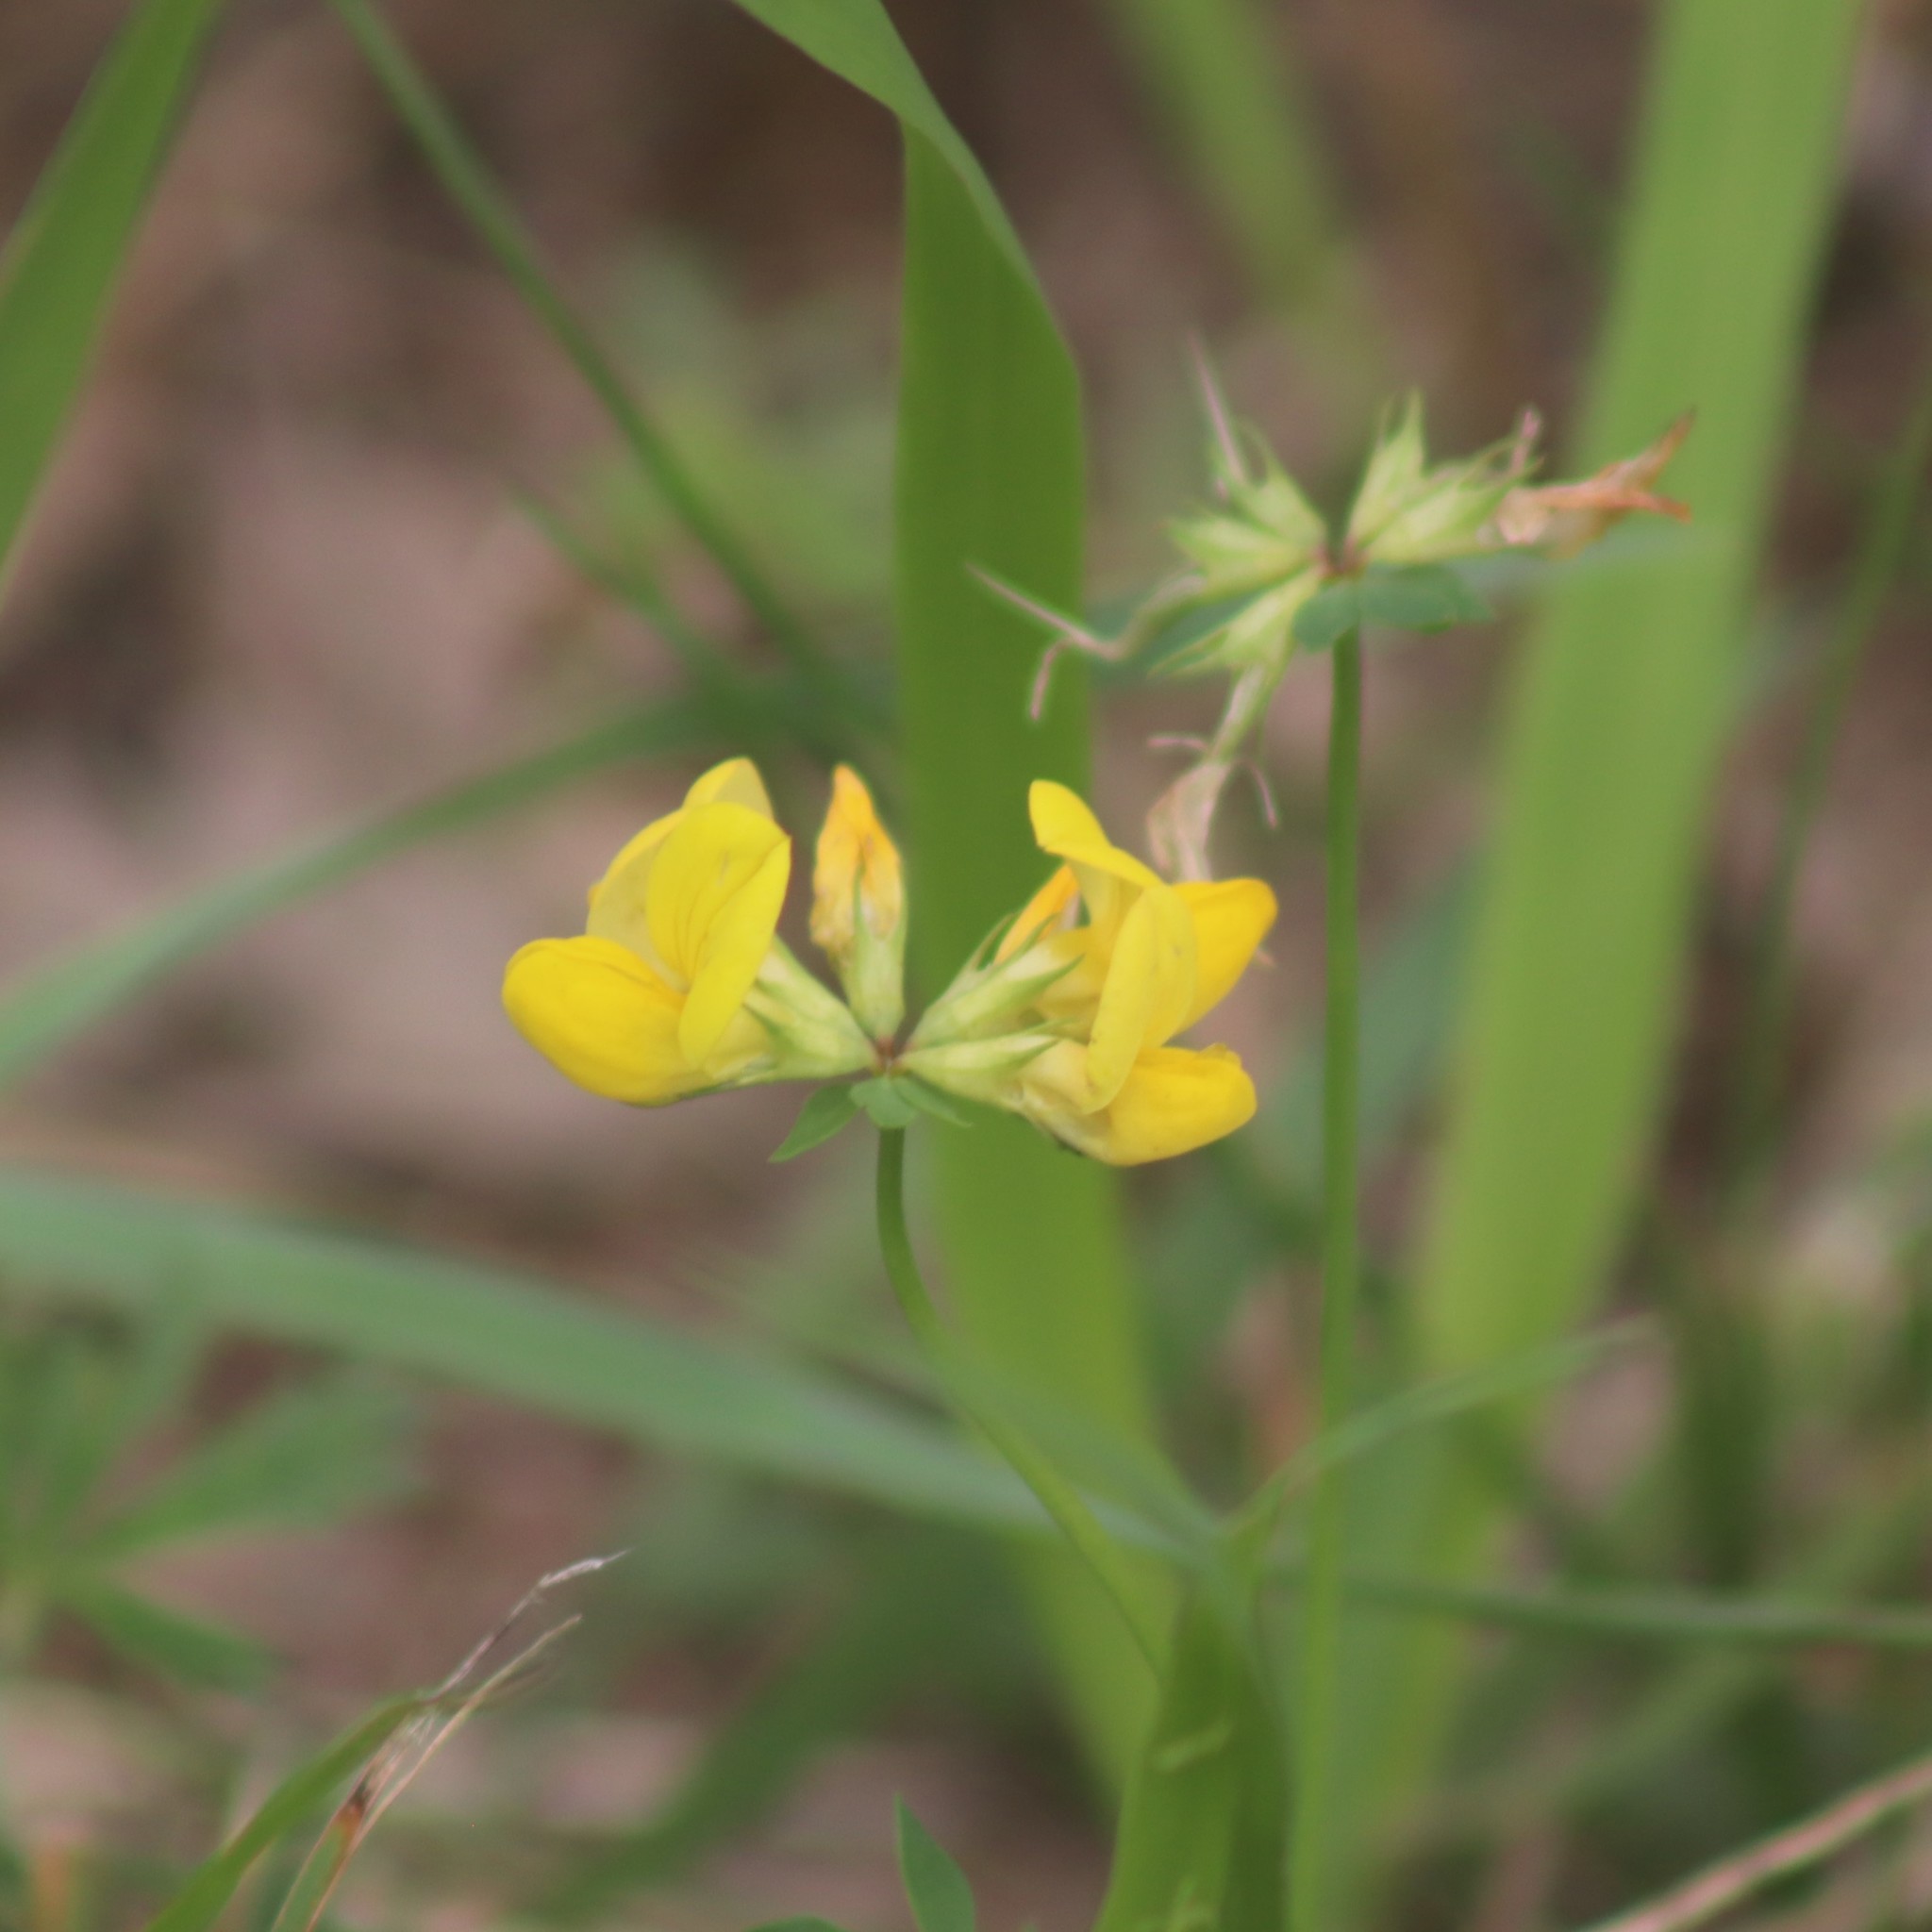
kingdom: Plantae
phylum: Tracheophyta
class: Magnoliopsida
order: Fabales
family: Fabaceae
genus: Lotus
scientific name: Lotus corniculatus
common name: Common bird's-foot-trefoil
